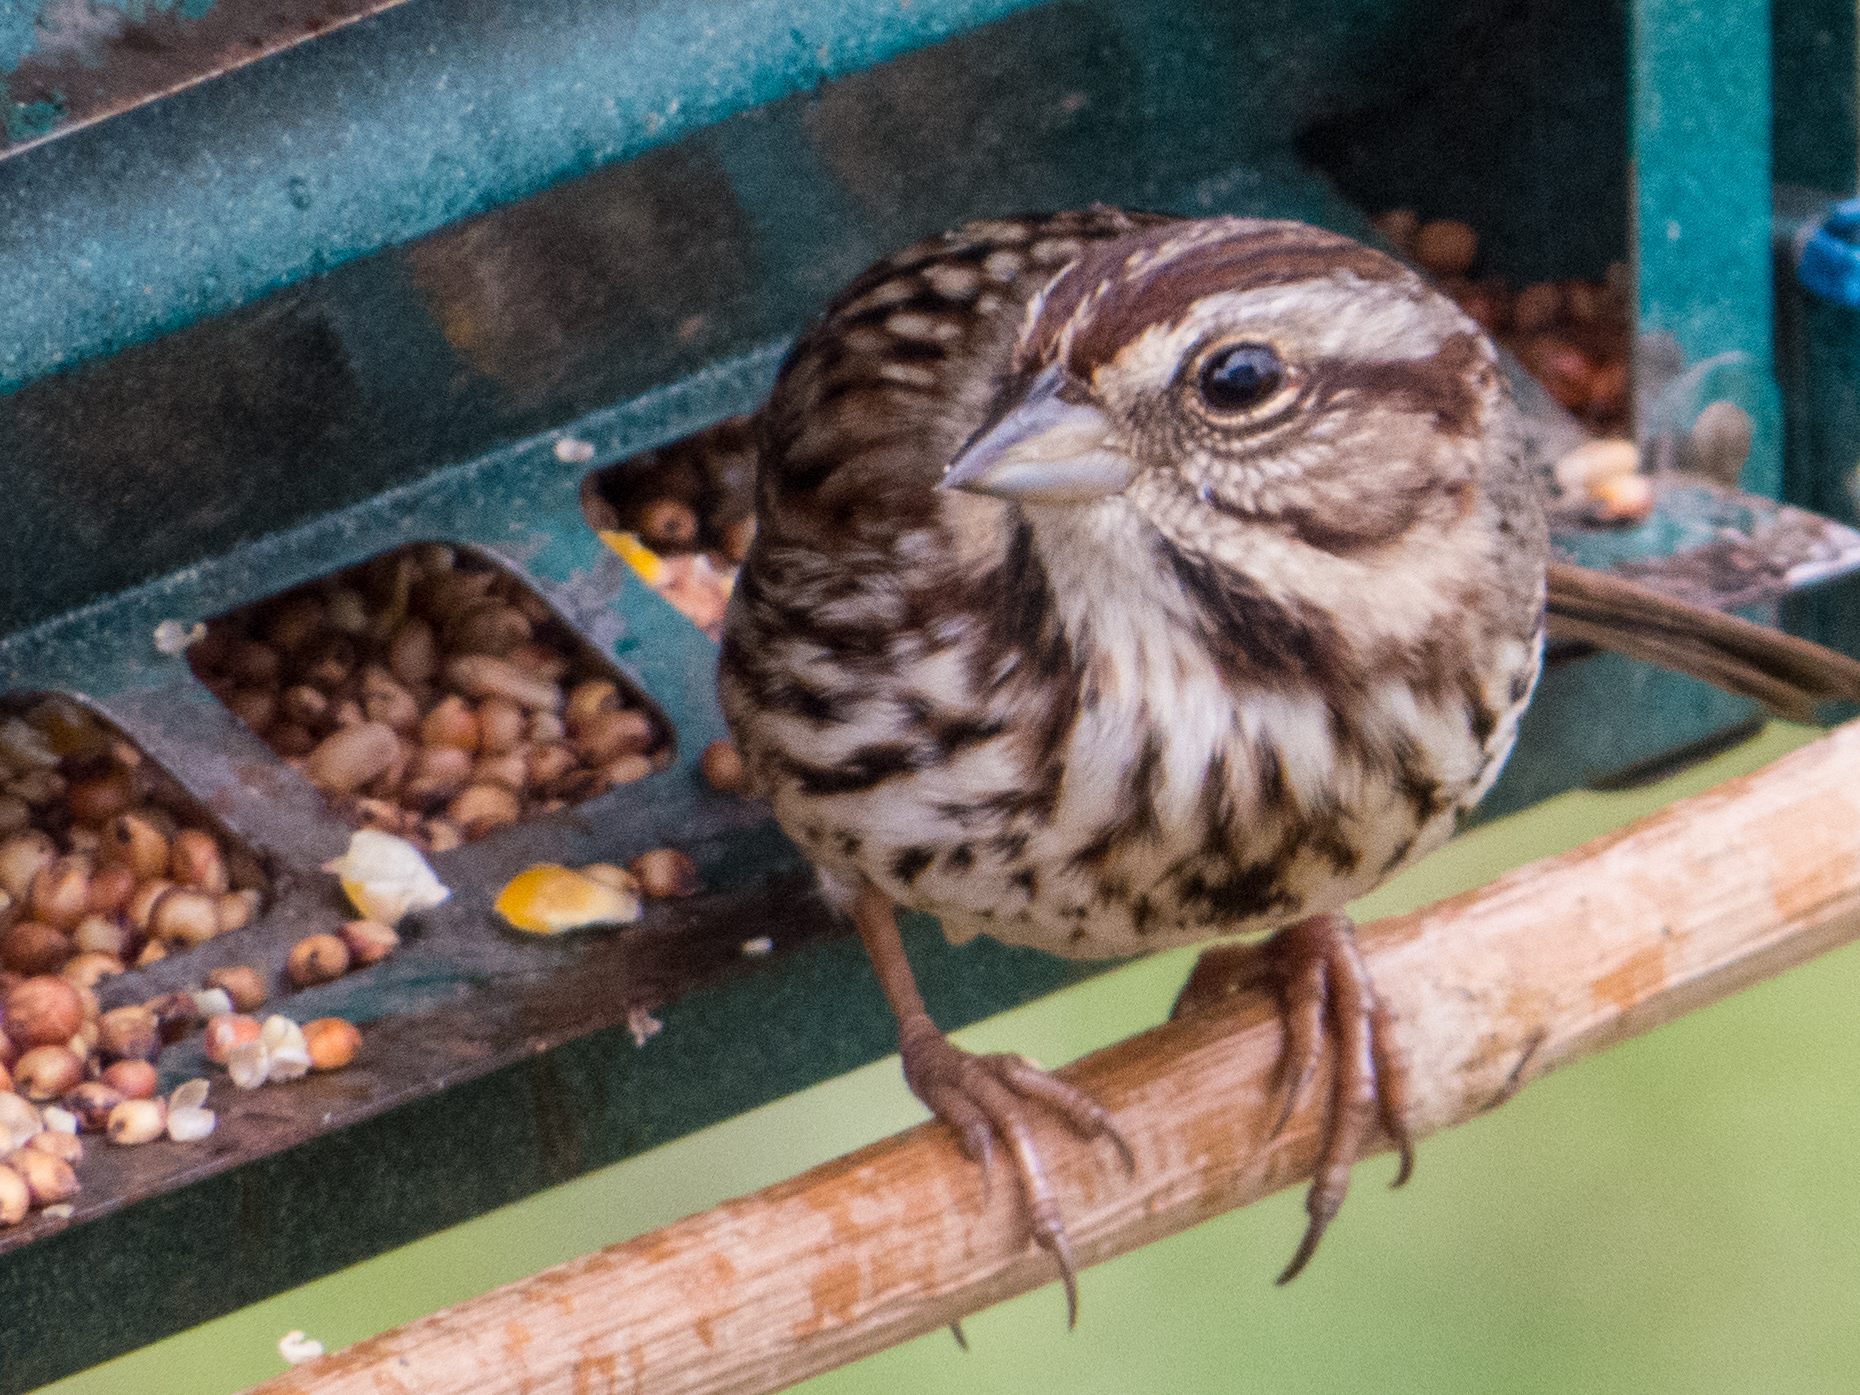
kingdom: Animalia
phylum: Chordata
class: Aves
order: Passeriformes
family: Passerellidae
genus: Melospiza
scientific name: Melospiza melodia
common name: Song sparrow
